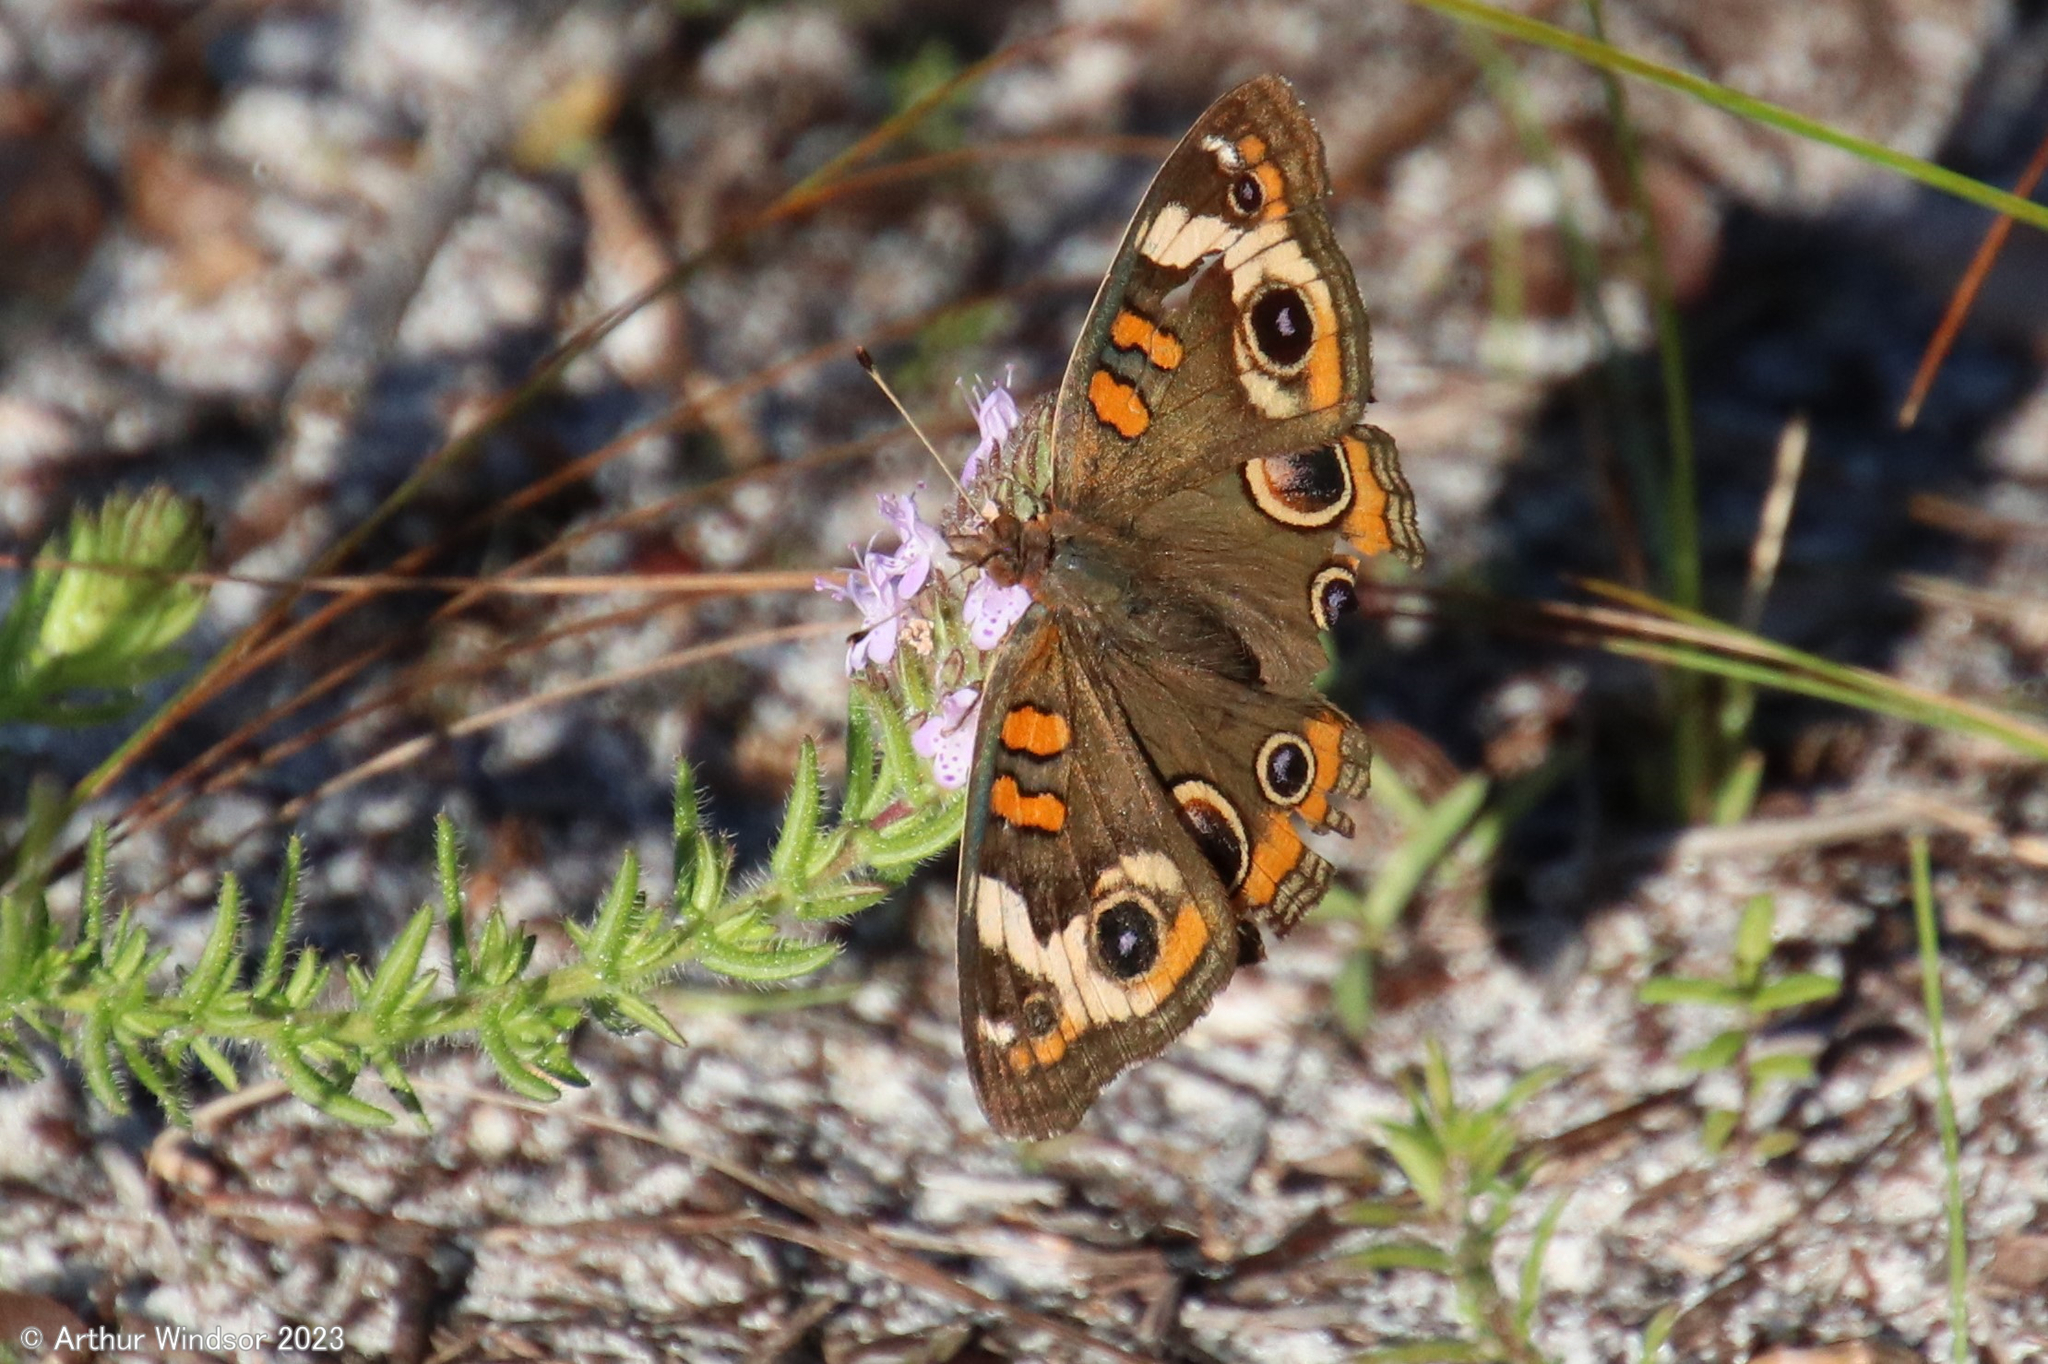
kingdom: Animalia
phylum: Arthropoda
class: Insecta
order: Lepidoptera
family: Nymphalidae
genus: Junonia
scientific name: Junonia coenia
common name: Common buckeye
